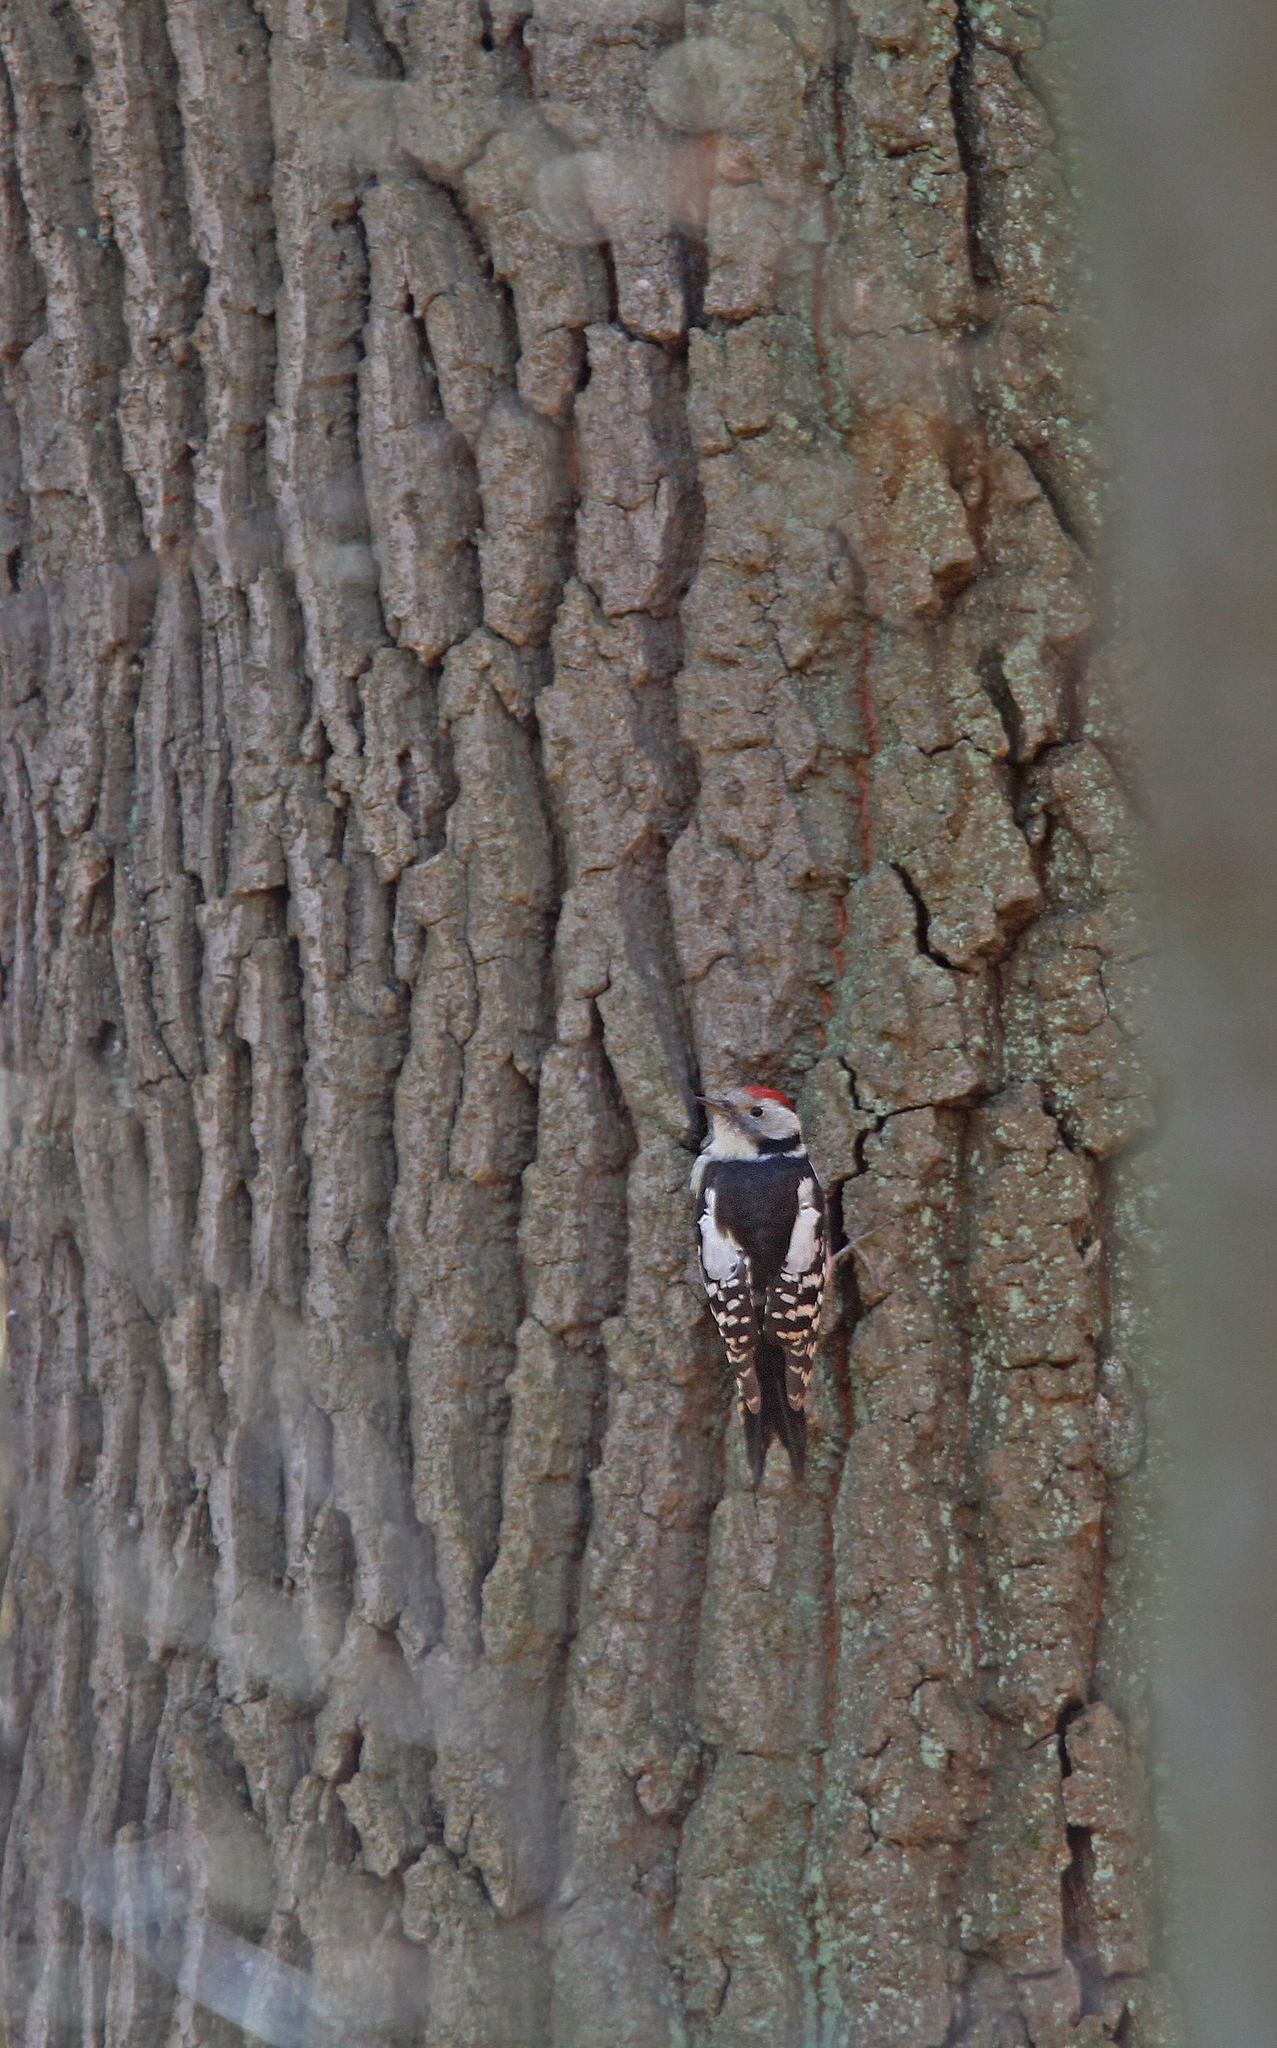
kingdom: Animalia
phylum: Chordata
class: Aves
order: Piciformes
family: Picidae
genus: Dendrocoptes
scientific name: Dendrocoptes medius
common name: Middle spotted woodpecker
